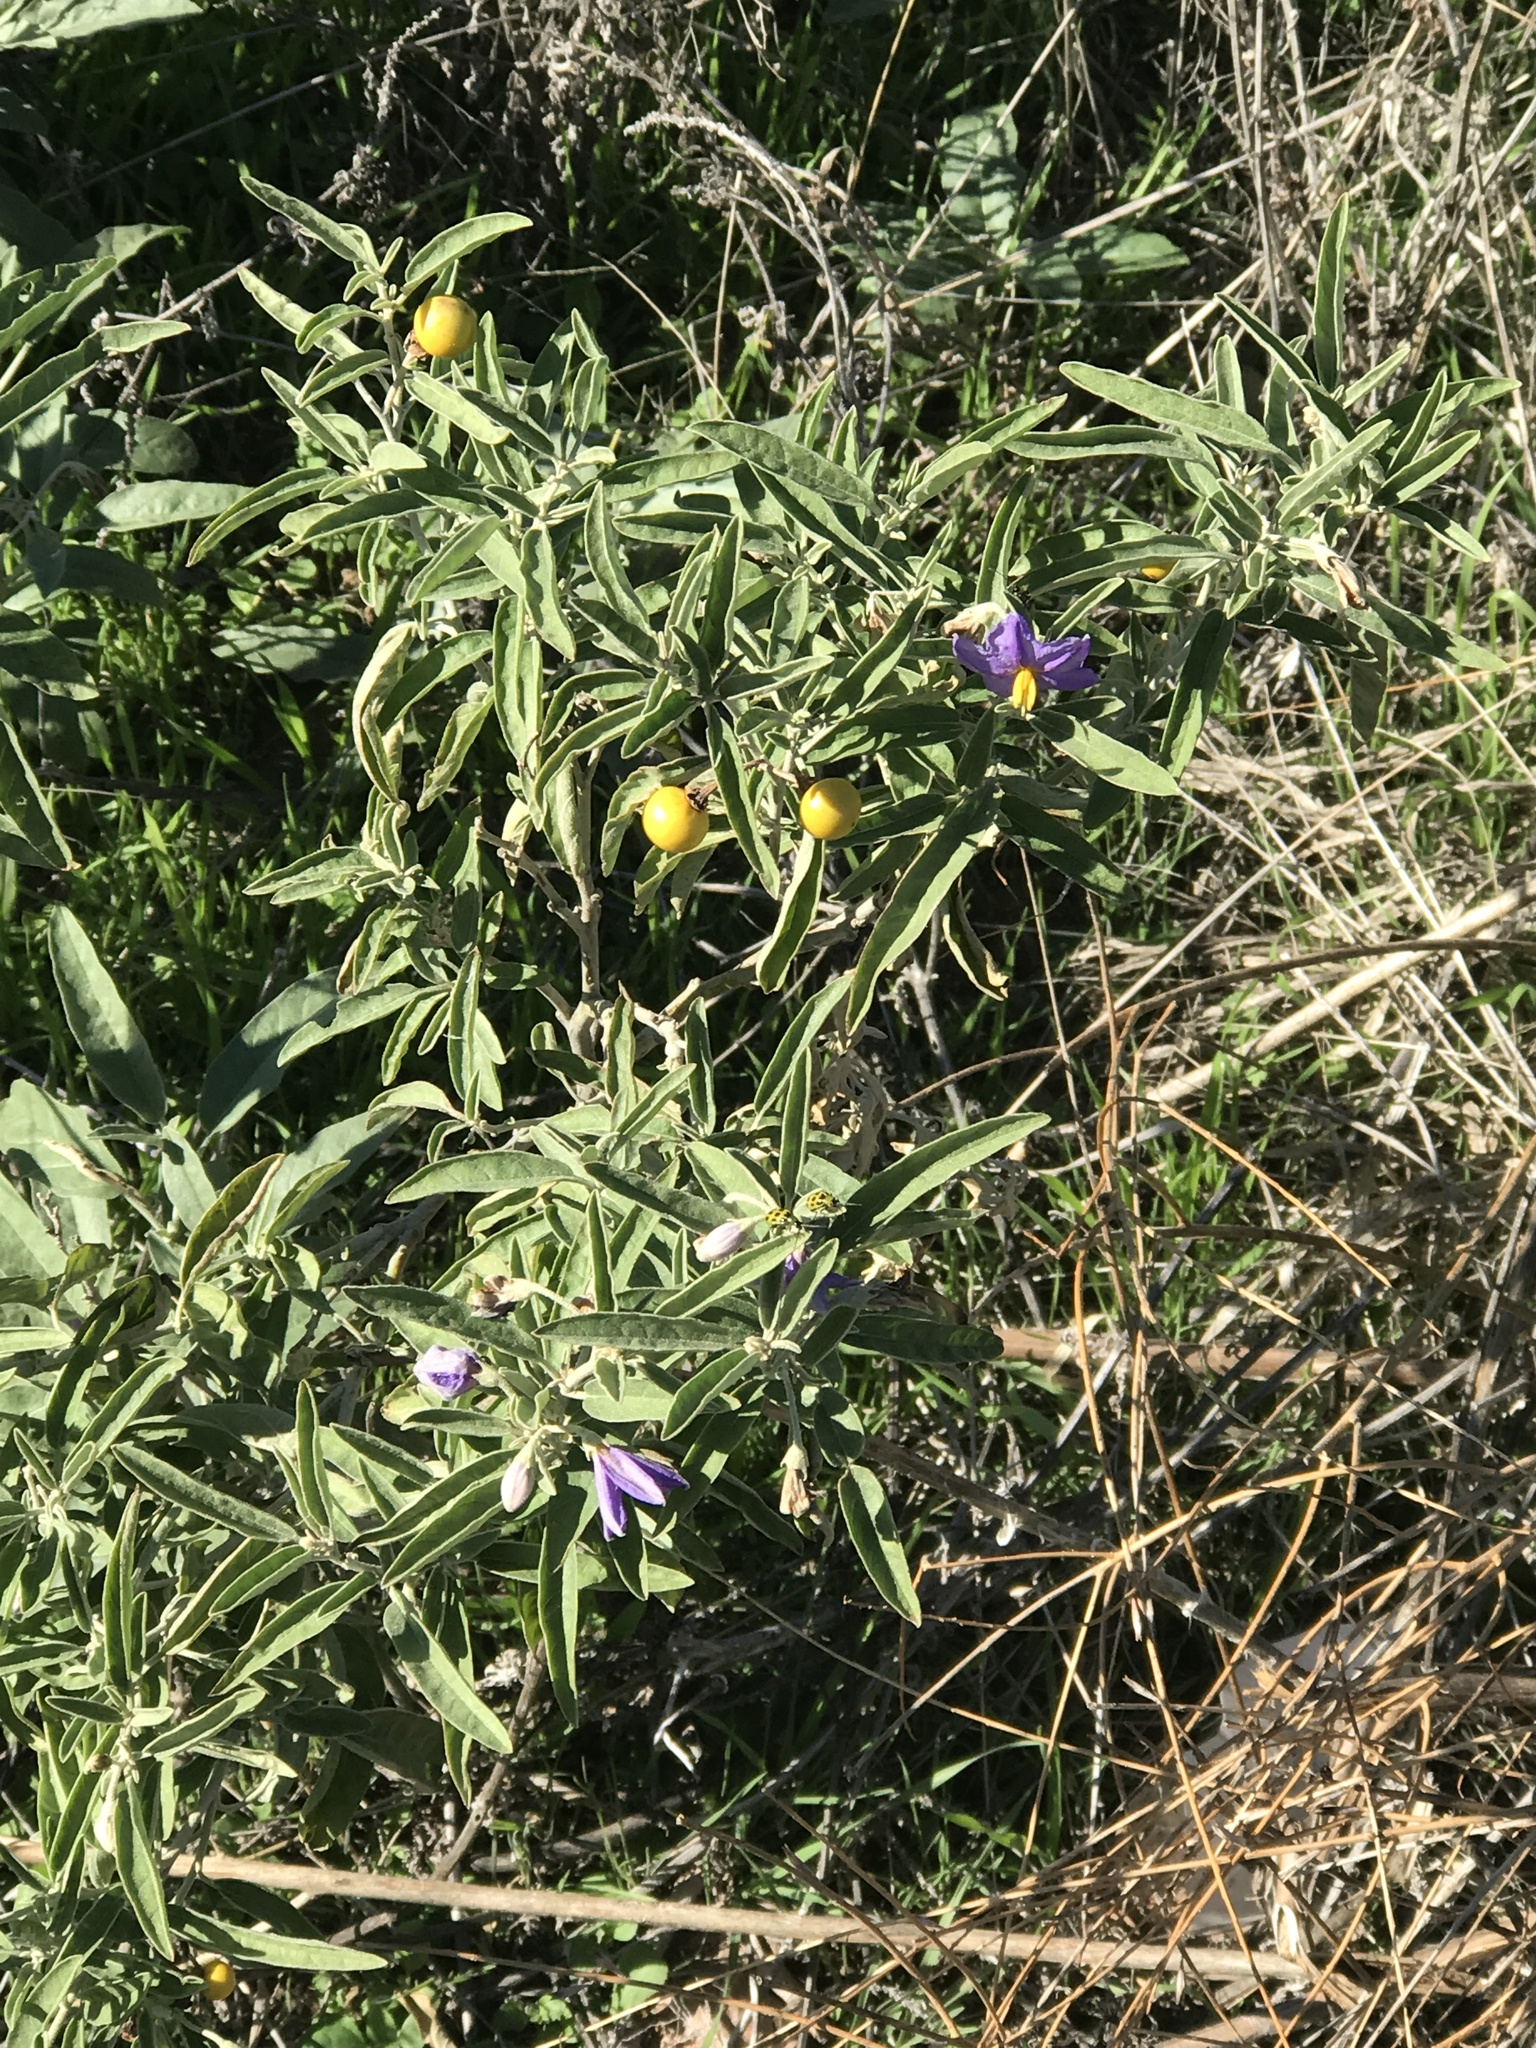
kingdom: Plantae
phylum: Tracheophyta
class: Magnoliopsida
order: Solanales
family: Solanaceae
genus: Solanum
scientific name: Solanum elaeagnifolium
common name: Silverleaf nightshade
